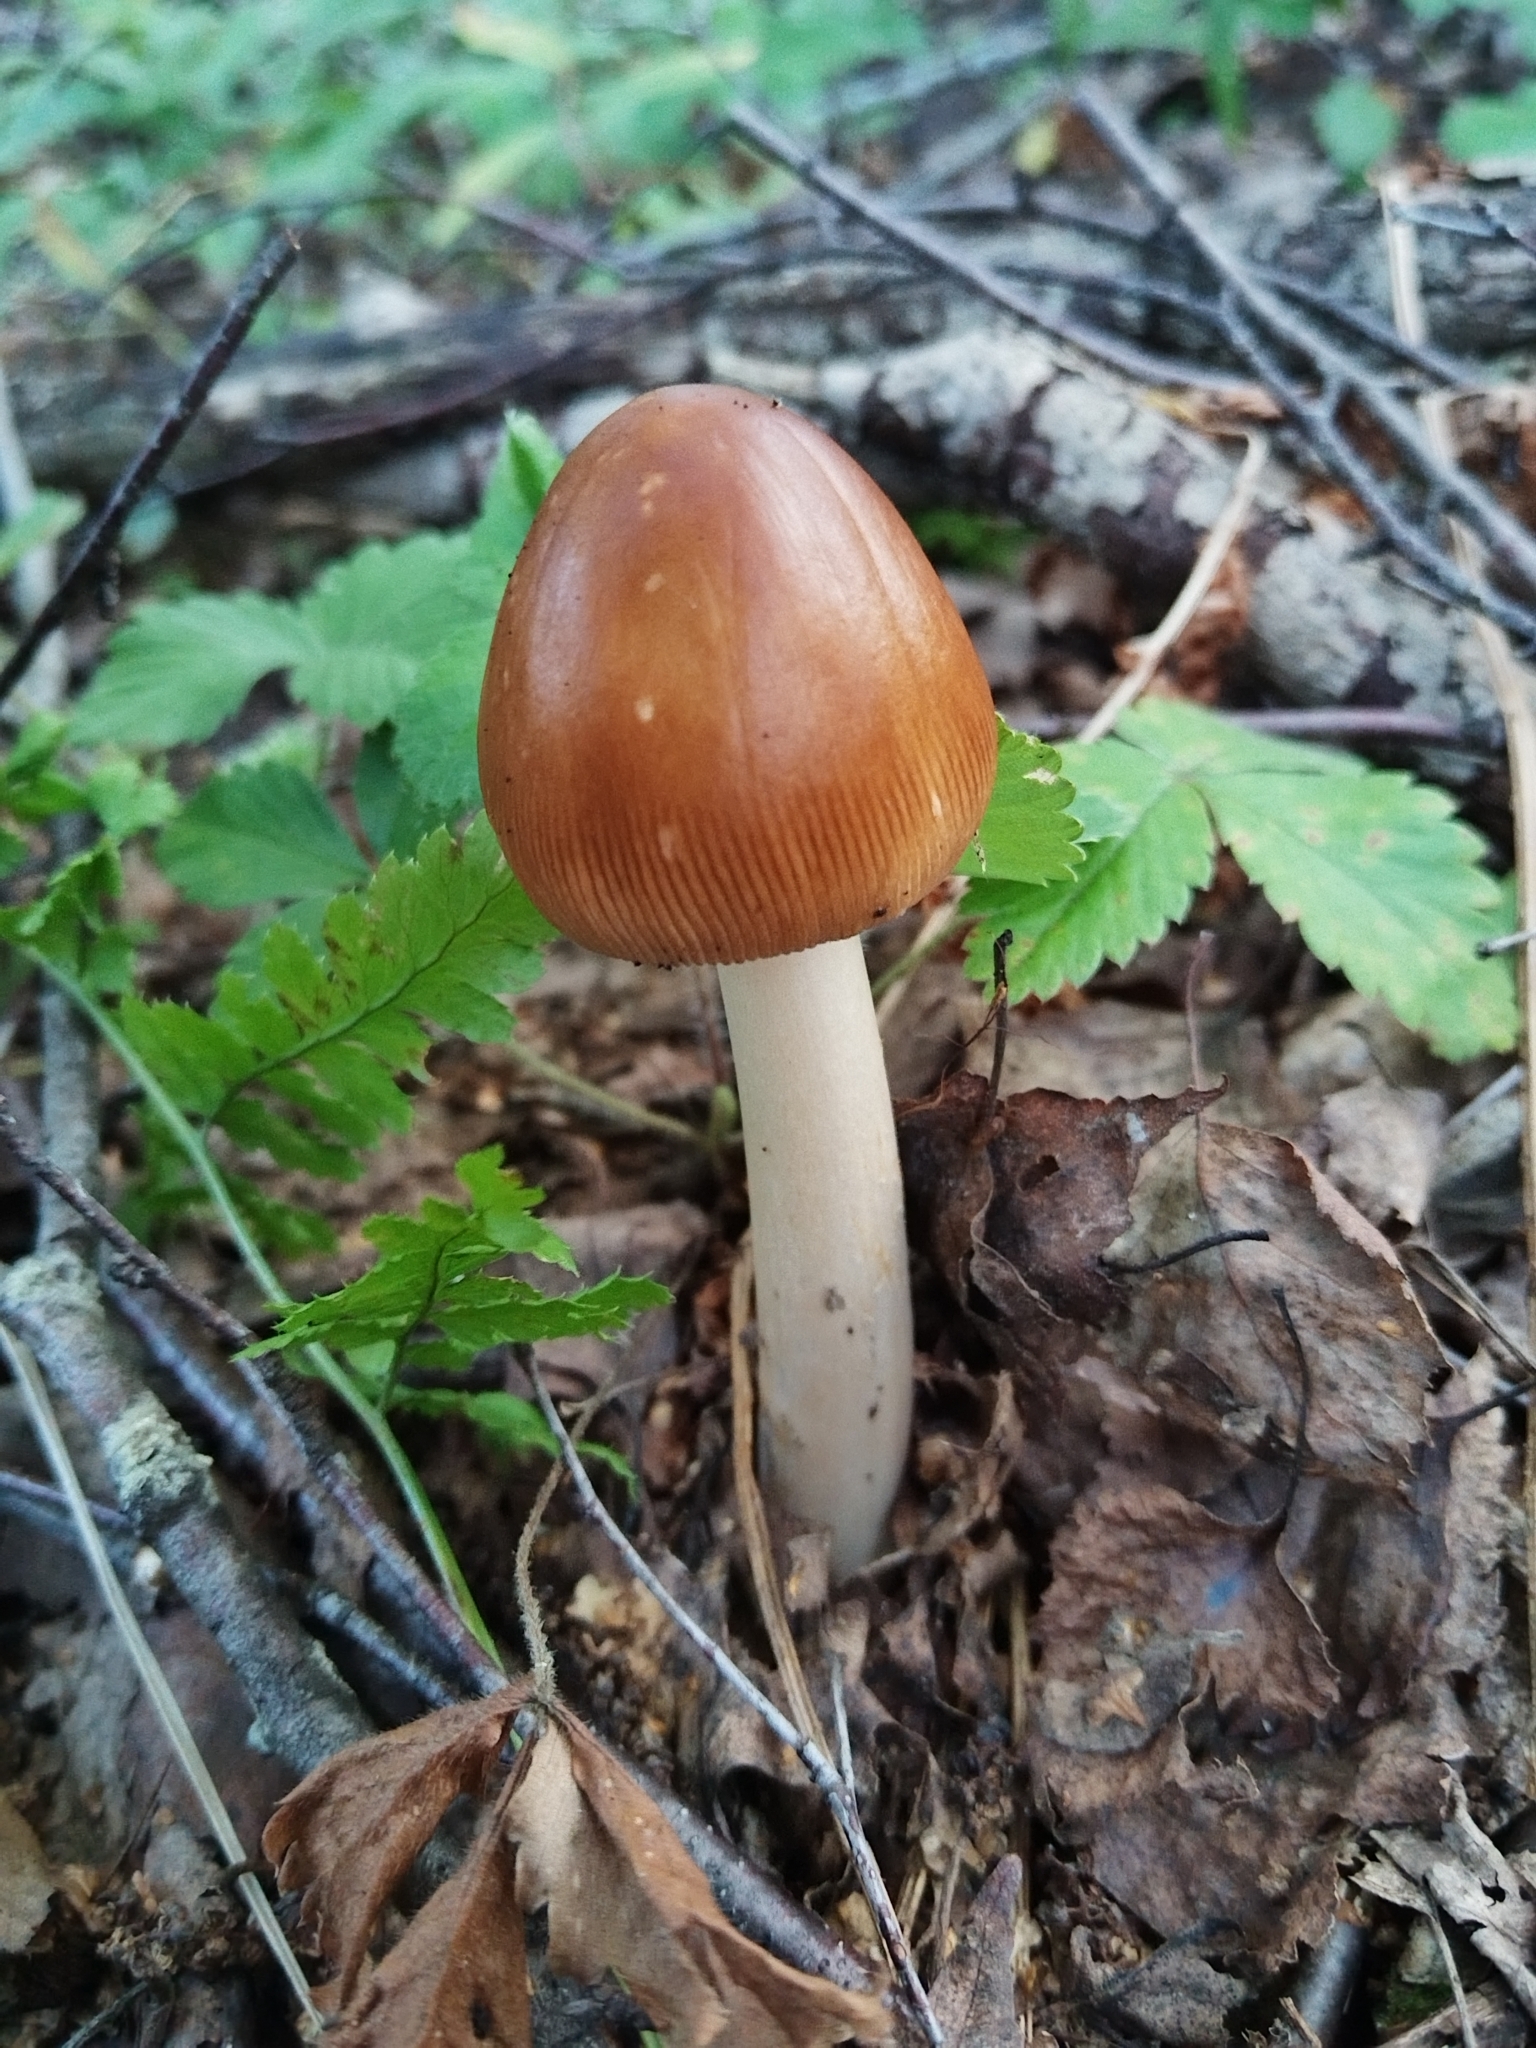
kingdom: Fungi
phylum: Basidiomycota
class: Agaricomycetes
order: Agaricales
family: Amanitaceae
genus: Amanita
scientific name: Amanita fulva
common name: Tawny grisette
